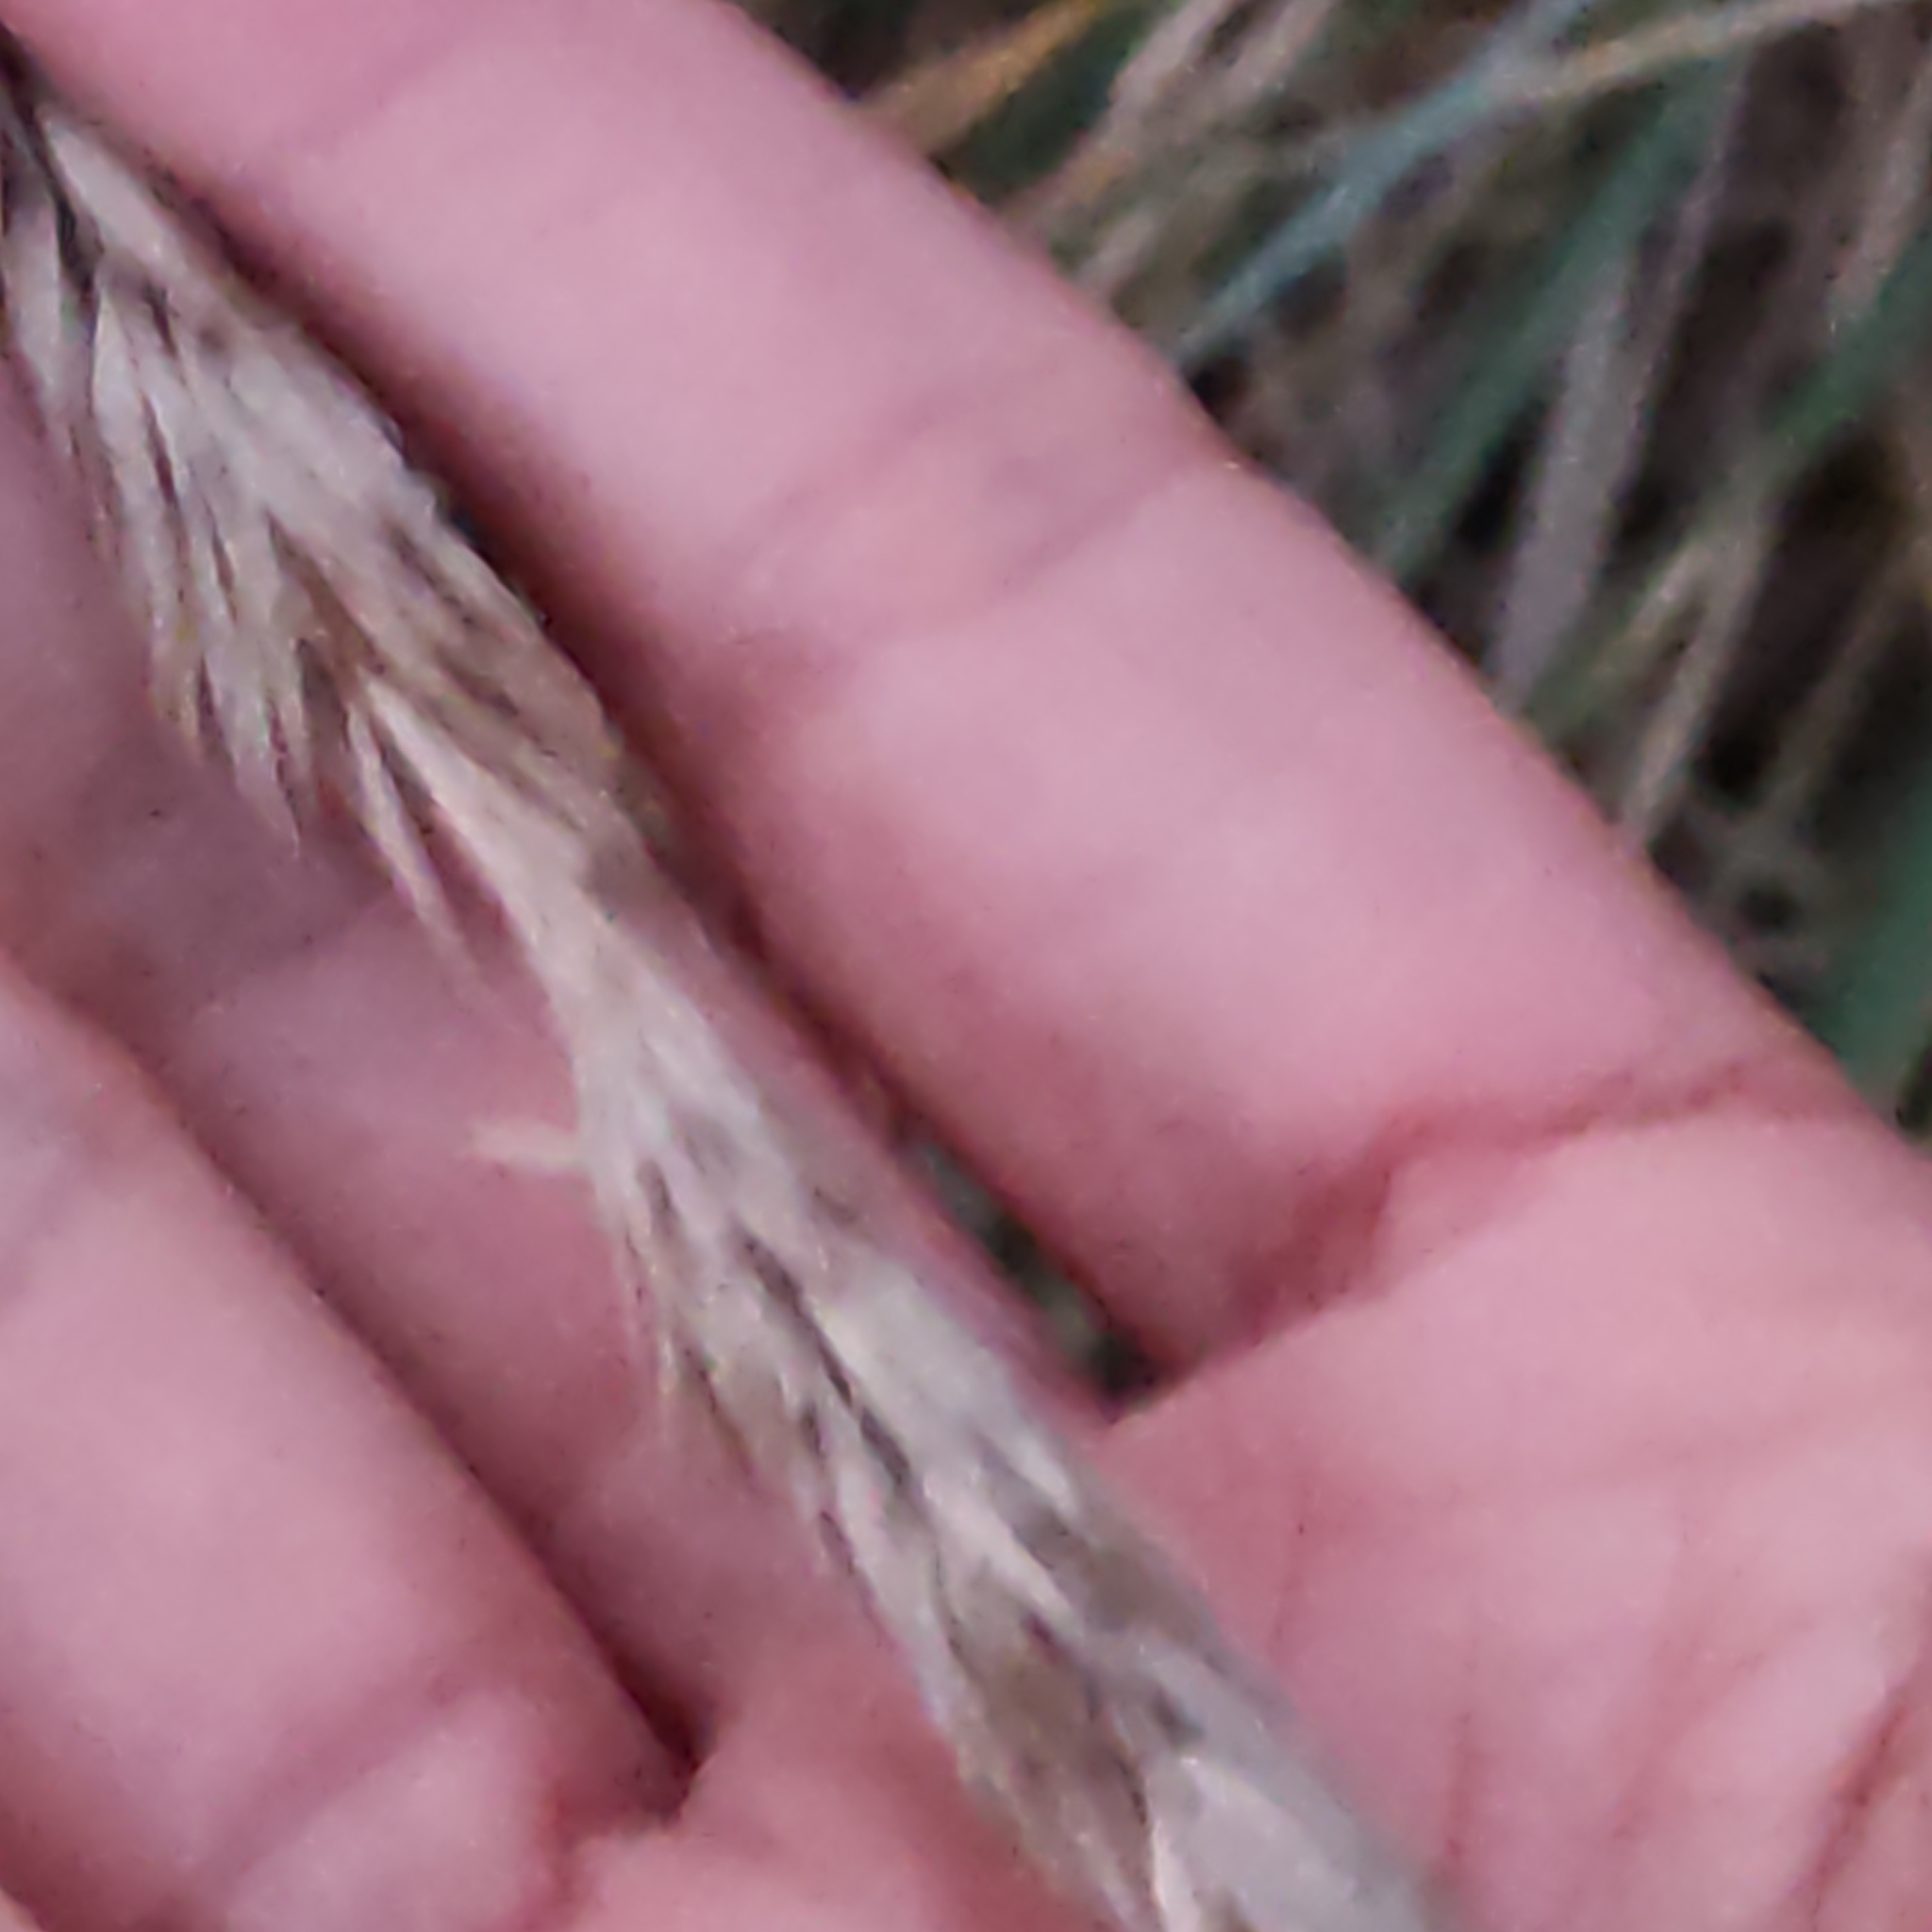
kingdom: Plantae
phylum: Tracheophyta
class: Liliopsida
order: Poales
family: Poaceae
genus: Calamagrostis
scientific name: Calamagrostis arenaria
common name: European beachgrass
